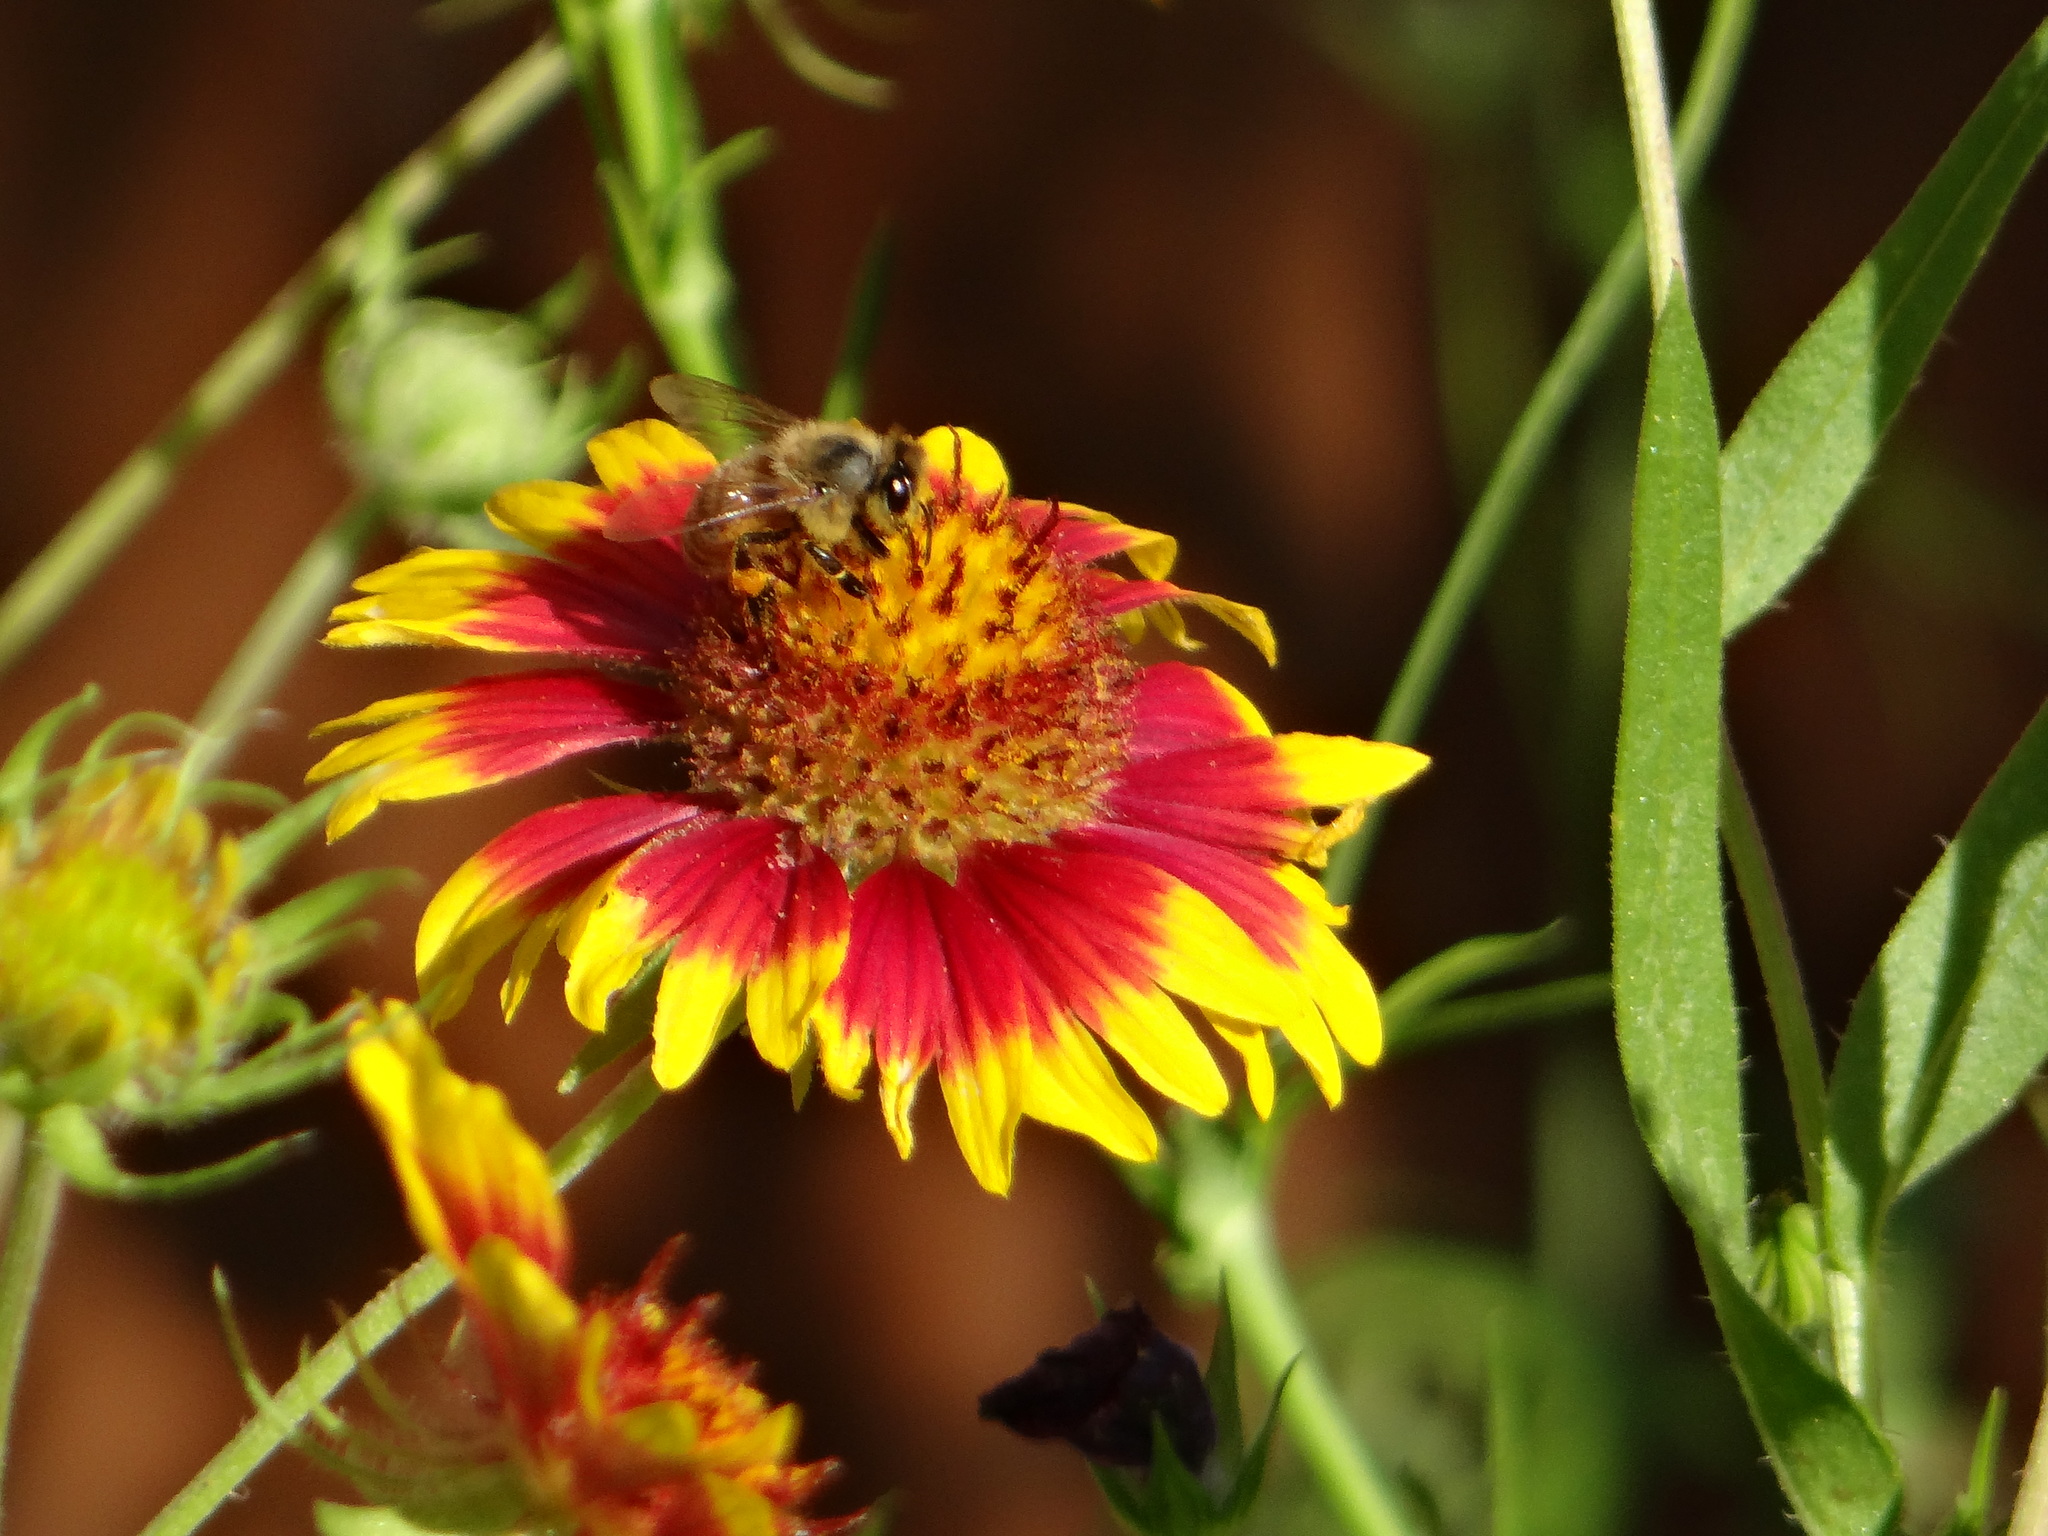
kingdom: Animalia
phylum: Arthropoda
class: Insecta
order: Hymenoptera
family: Apidae
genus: Apis
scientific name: Apis mellifera
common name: Honey bee
